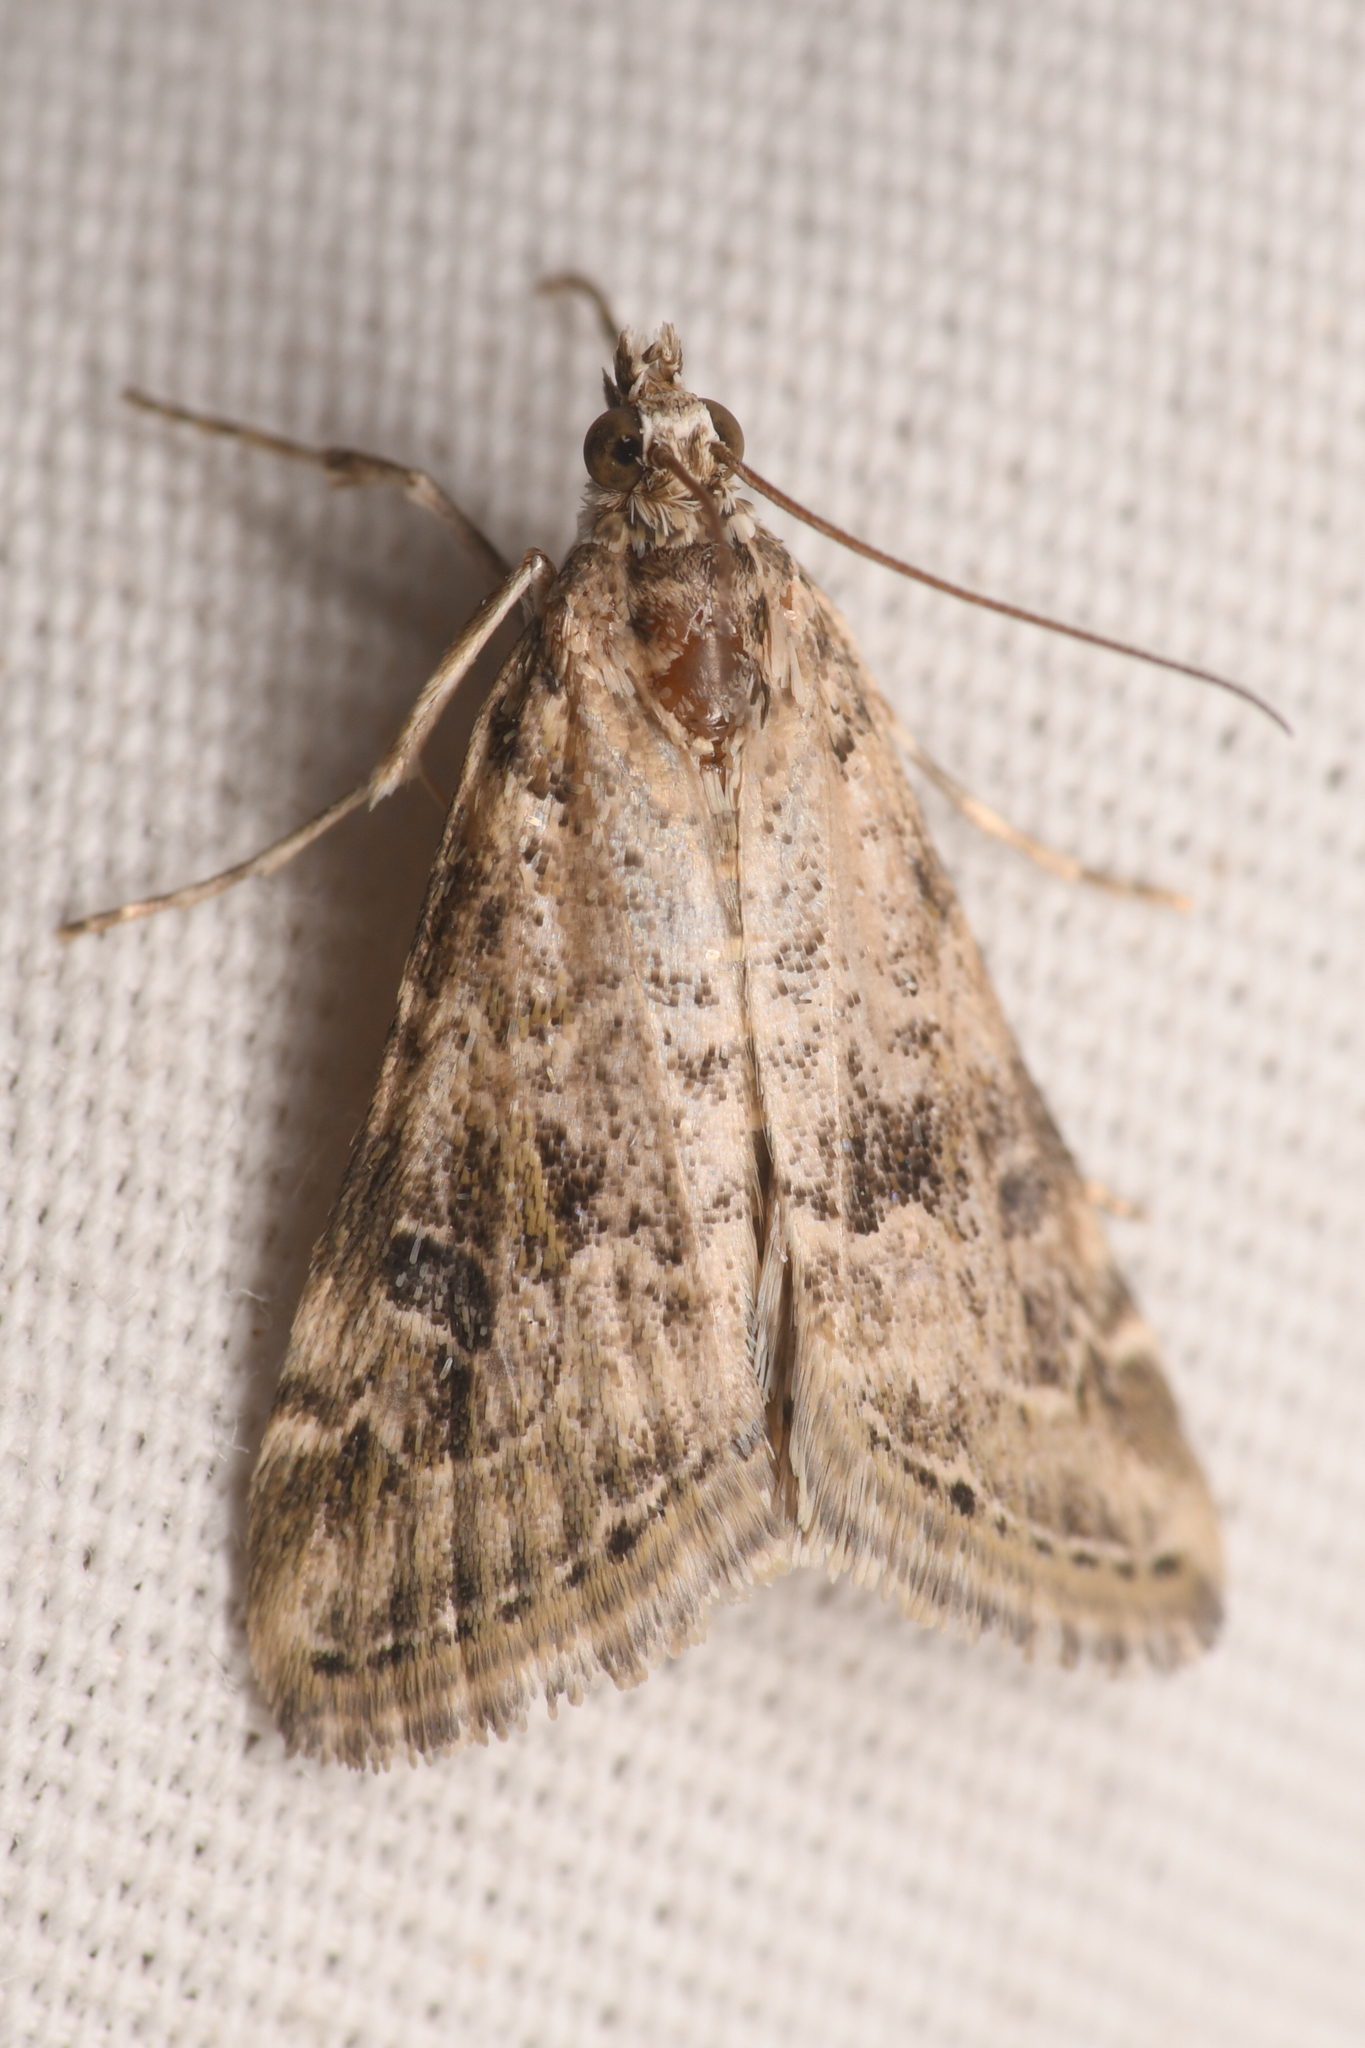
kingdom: Animalia
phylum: Arthropoda
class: Insecta
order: Lepidoptera
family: Crambidae
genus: Hellula
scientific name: Hellula rogatalis
